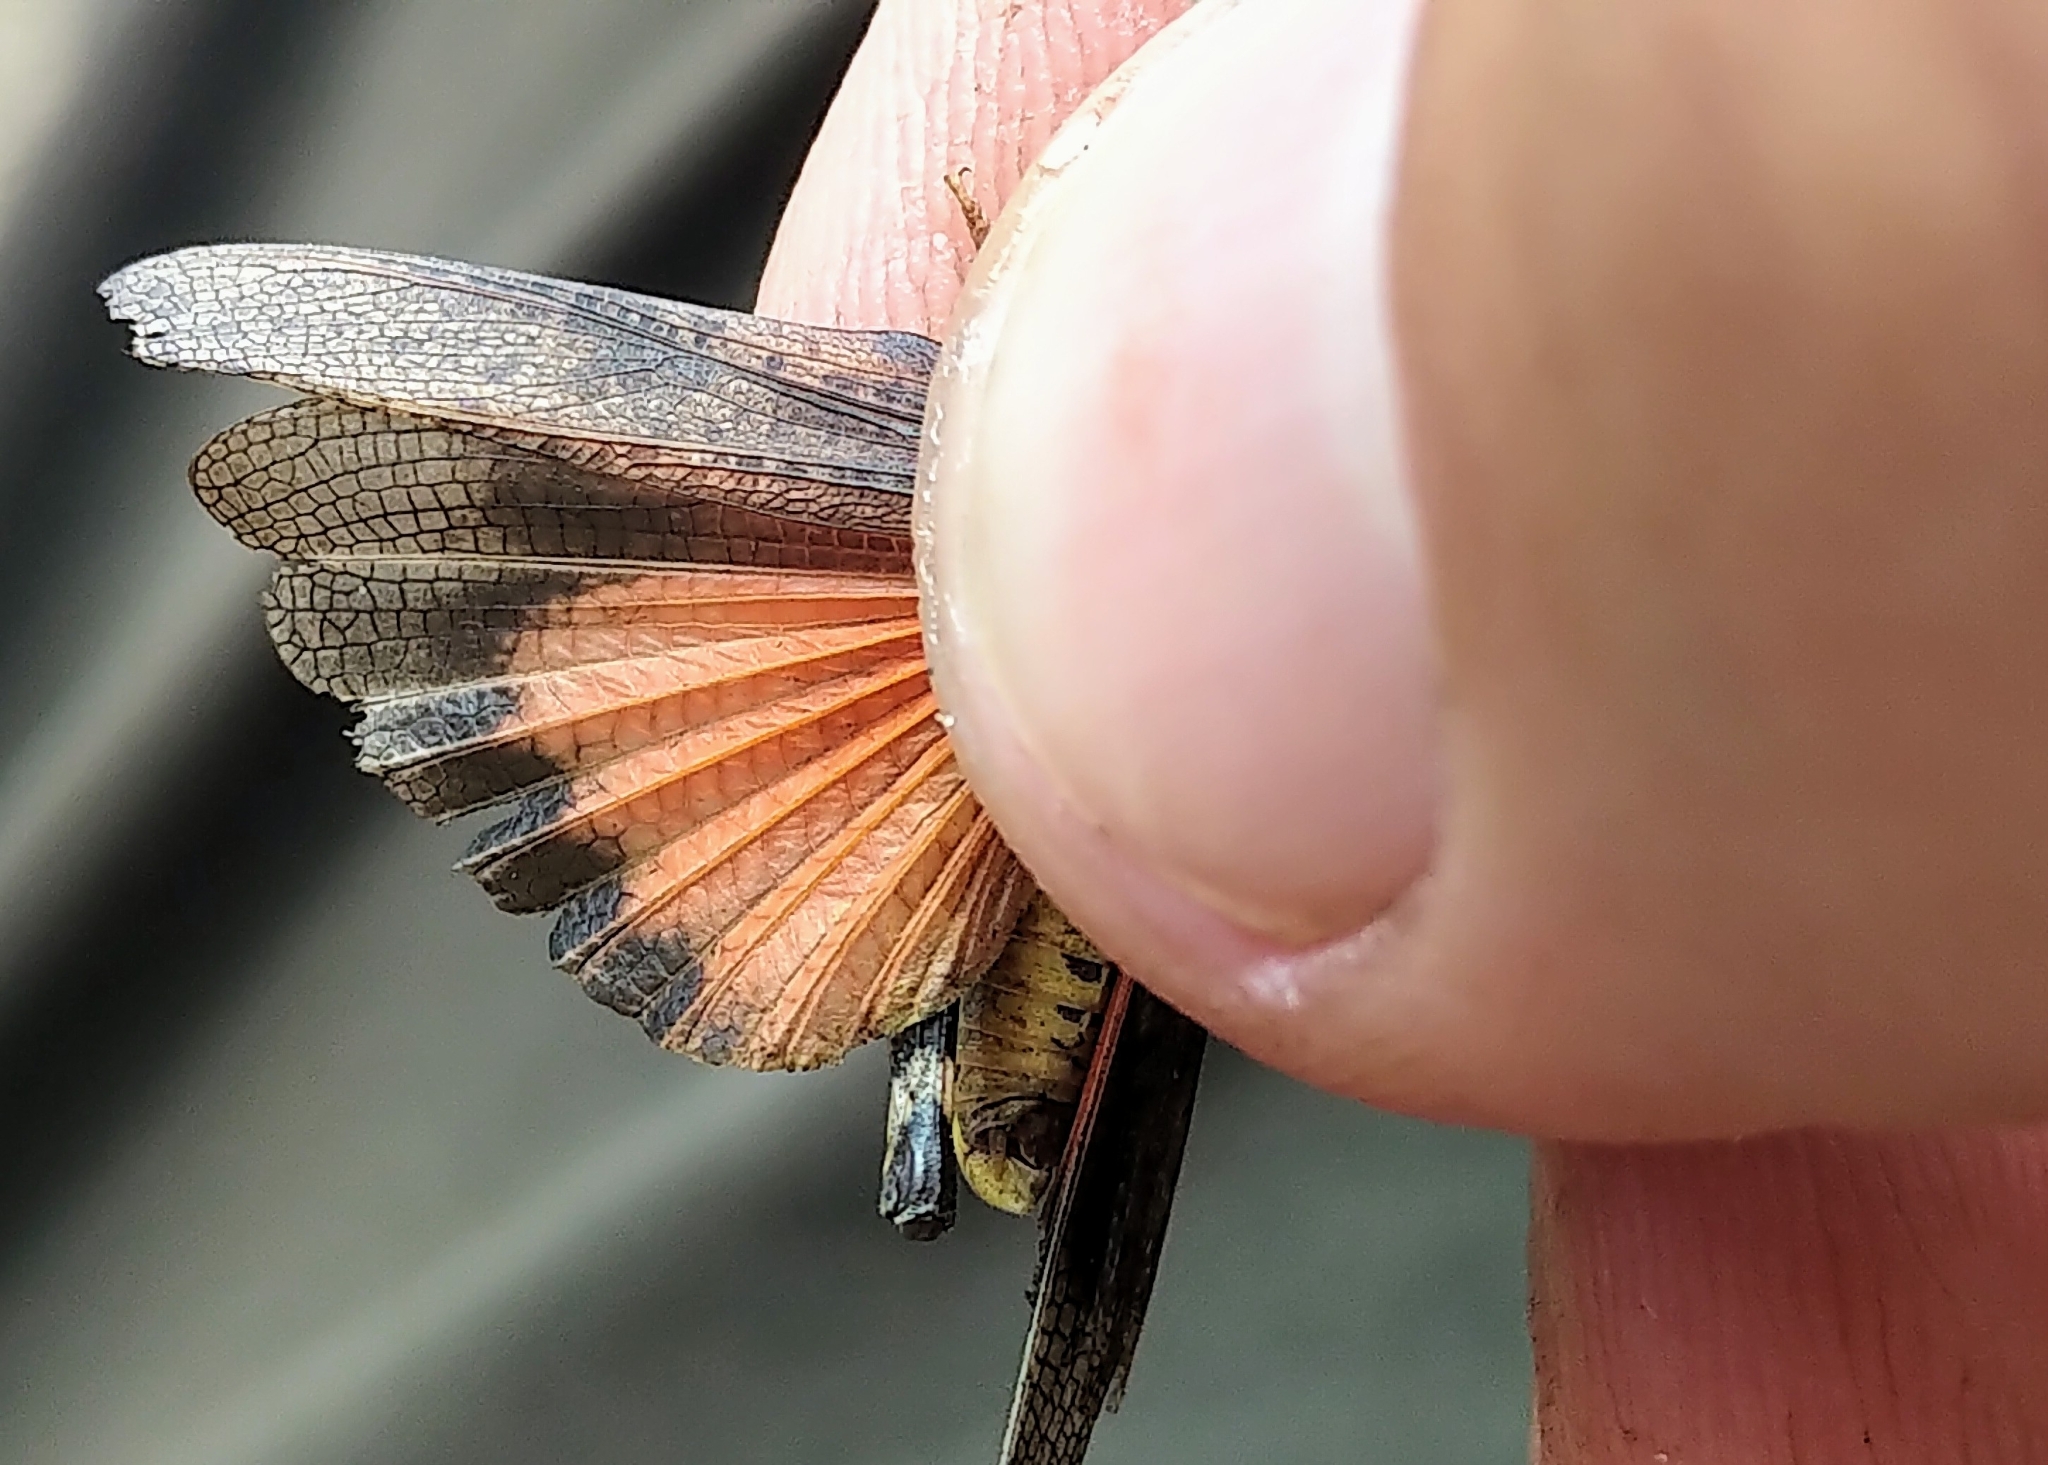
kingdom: Animalia
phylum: Arthropoda
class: Insecta
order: Orthoptera
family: Acrididae
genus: Arphia
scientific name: Arphia conspersa
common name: Speckle-winged rangeland grasshopper
